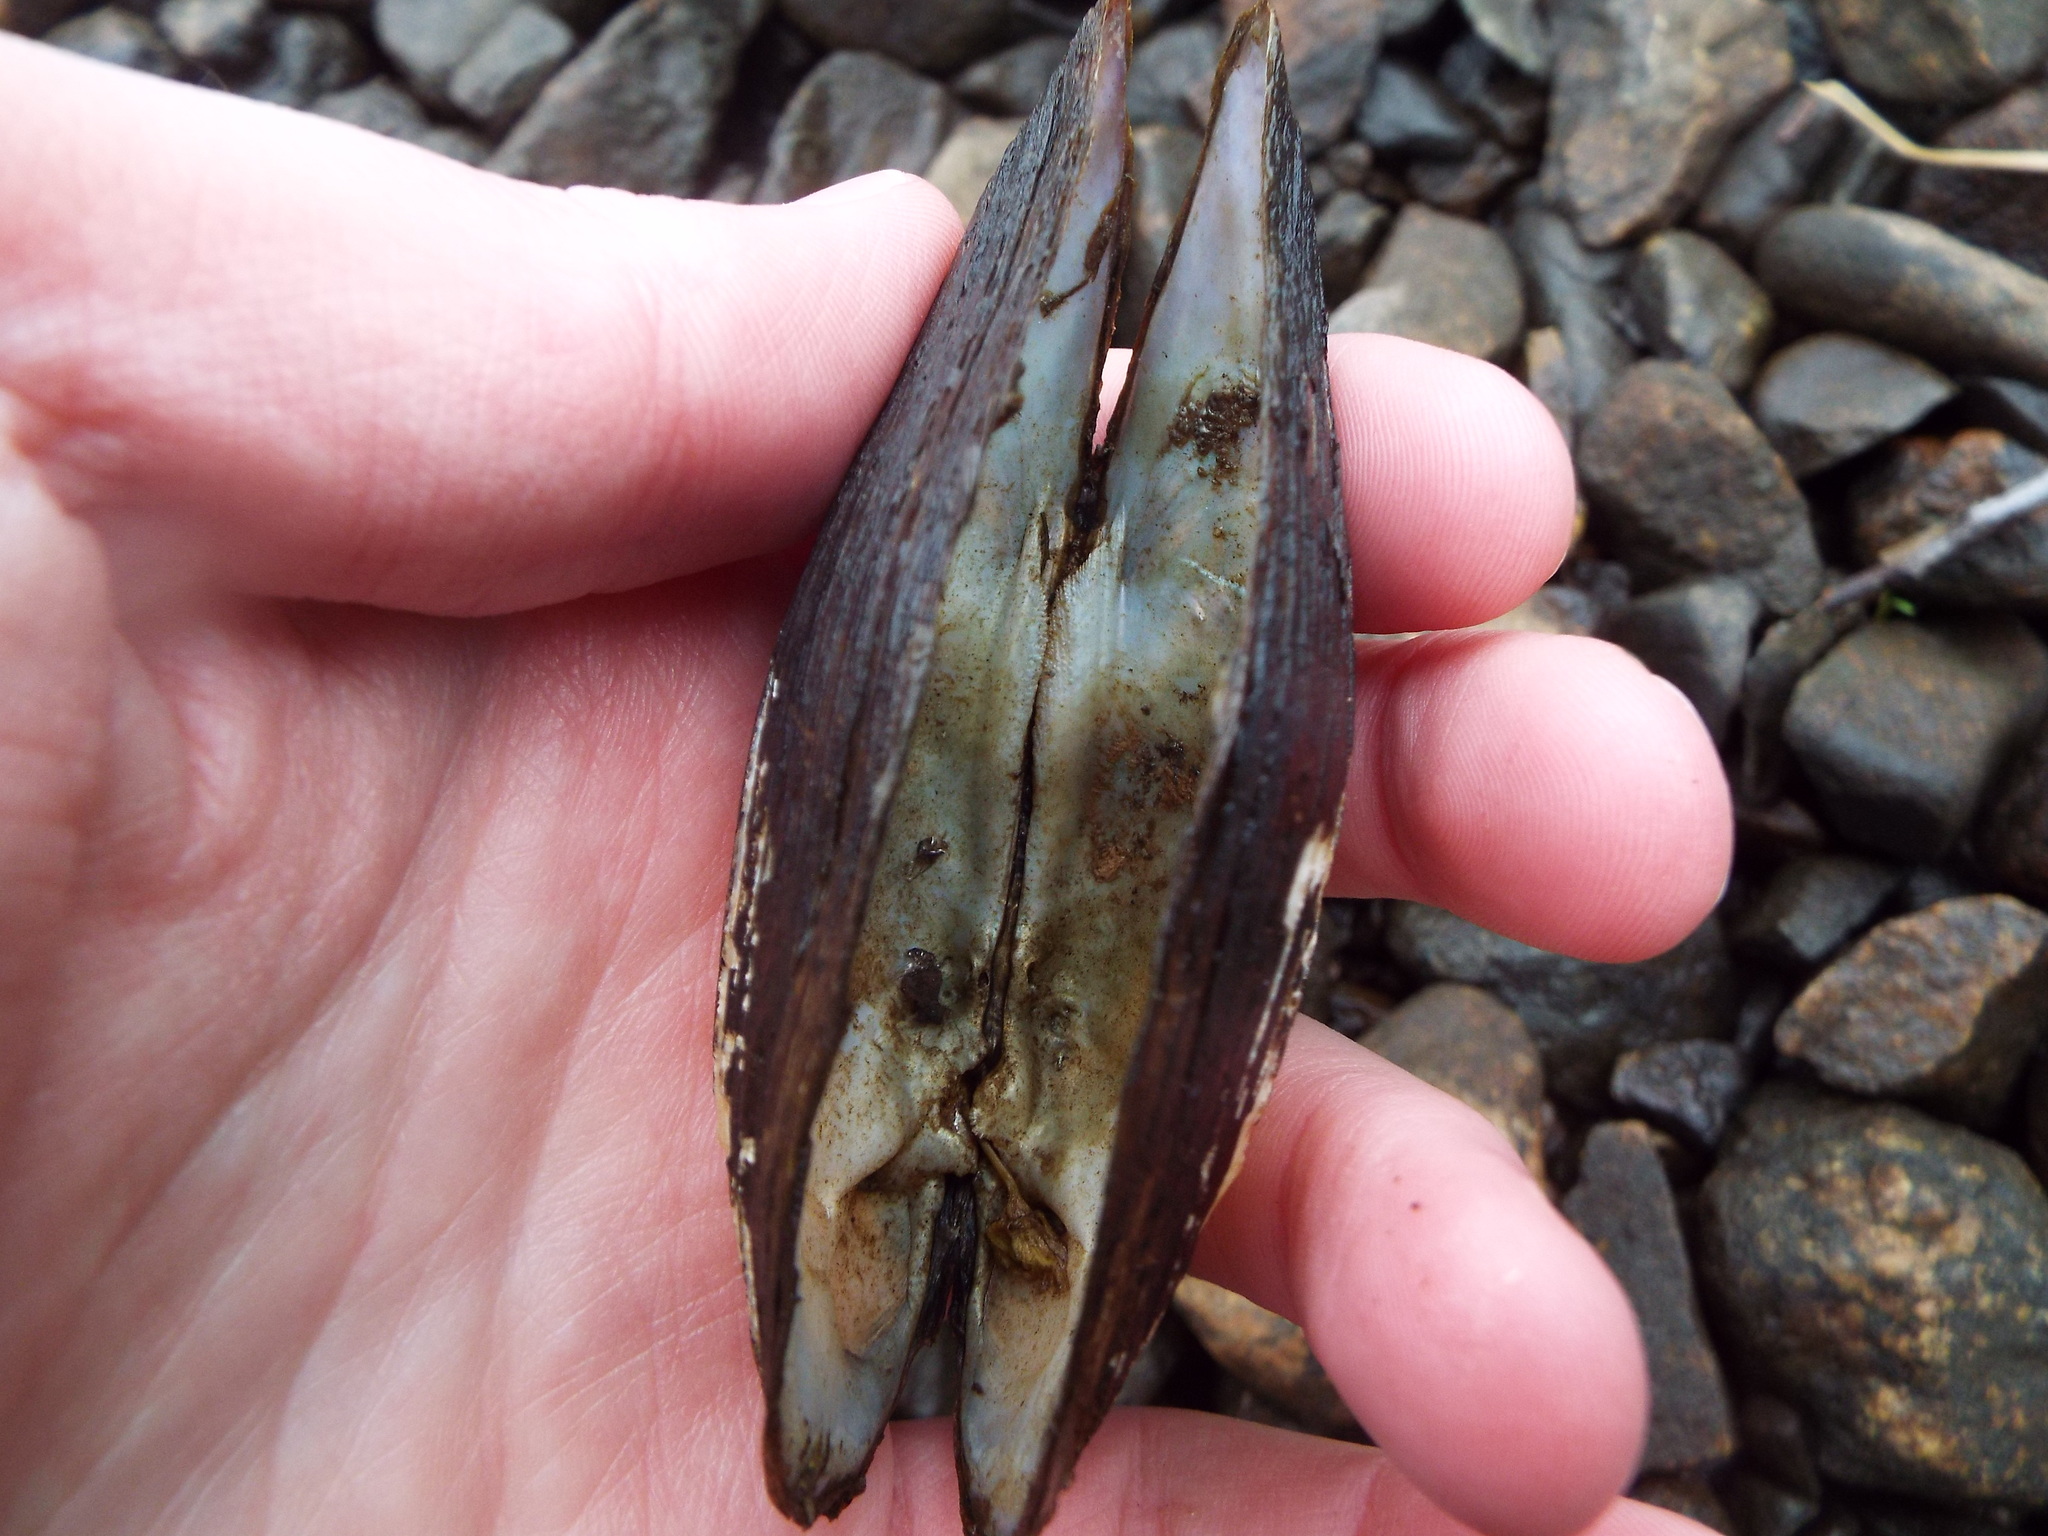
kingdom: Animalia
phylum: Mollusca
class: Bivalvia
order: Unionida
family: Unionidae
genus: Sagittunio
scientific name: Sagittunio nasutus
